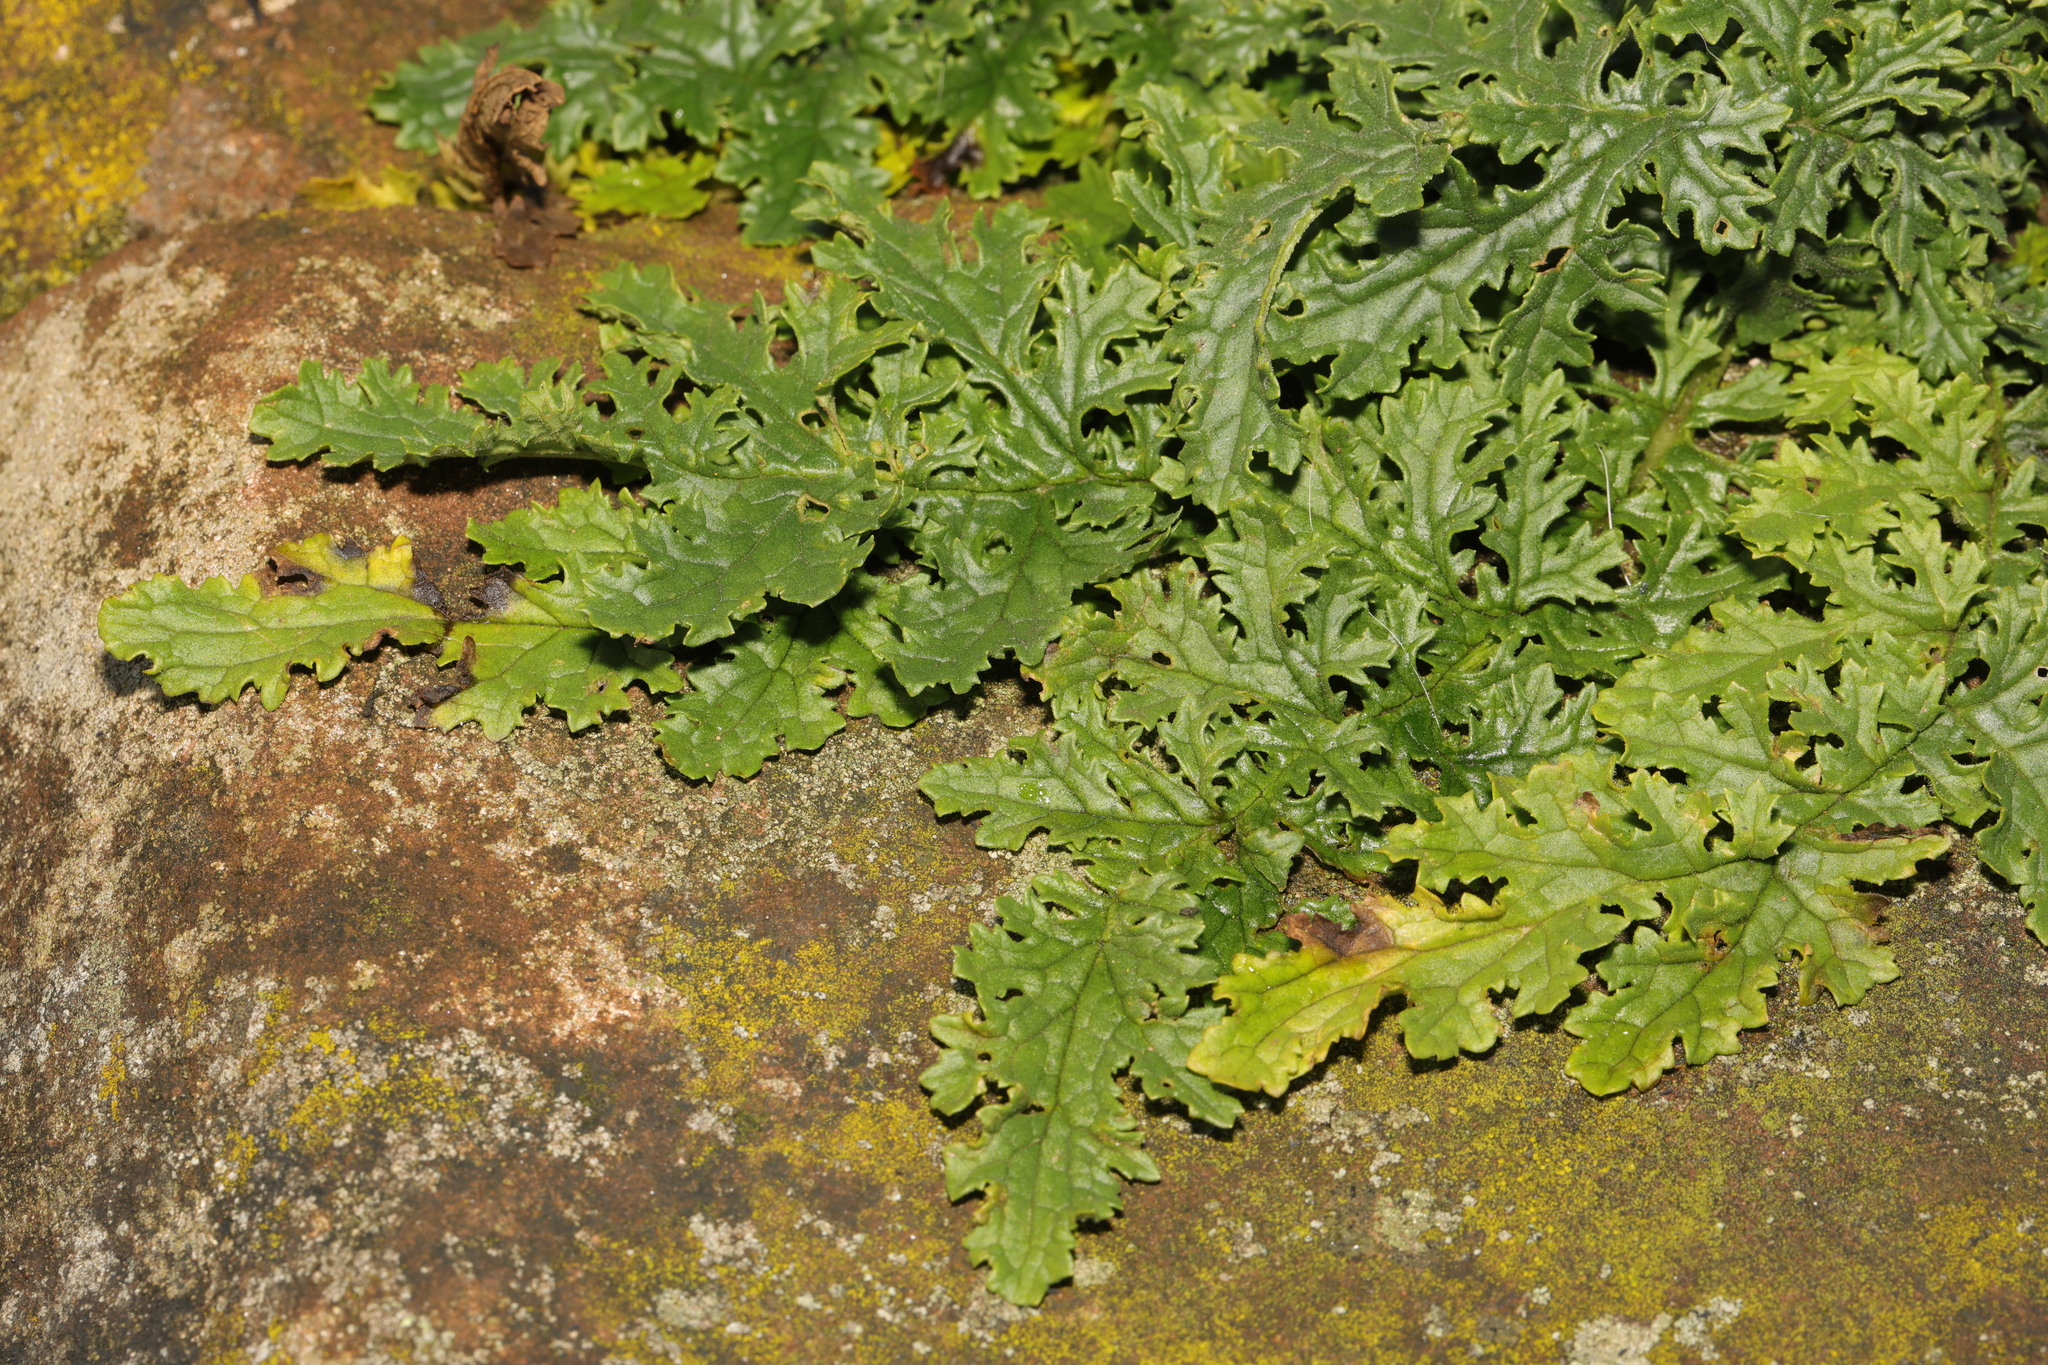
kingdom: Plantae
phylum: Tracheophyta
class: Magnoliopsida
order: Asterales
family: Asteraceae
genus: Jacobaea
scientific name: Jacobaea vulgaris
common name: Stinking willie
